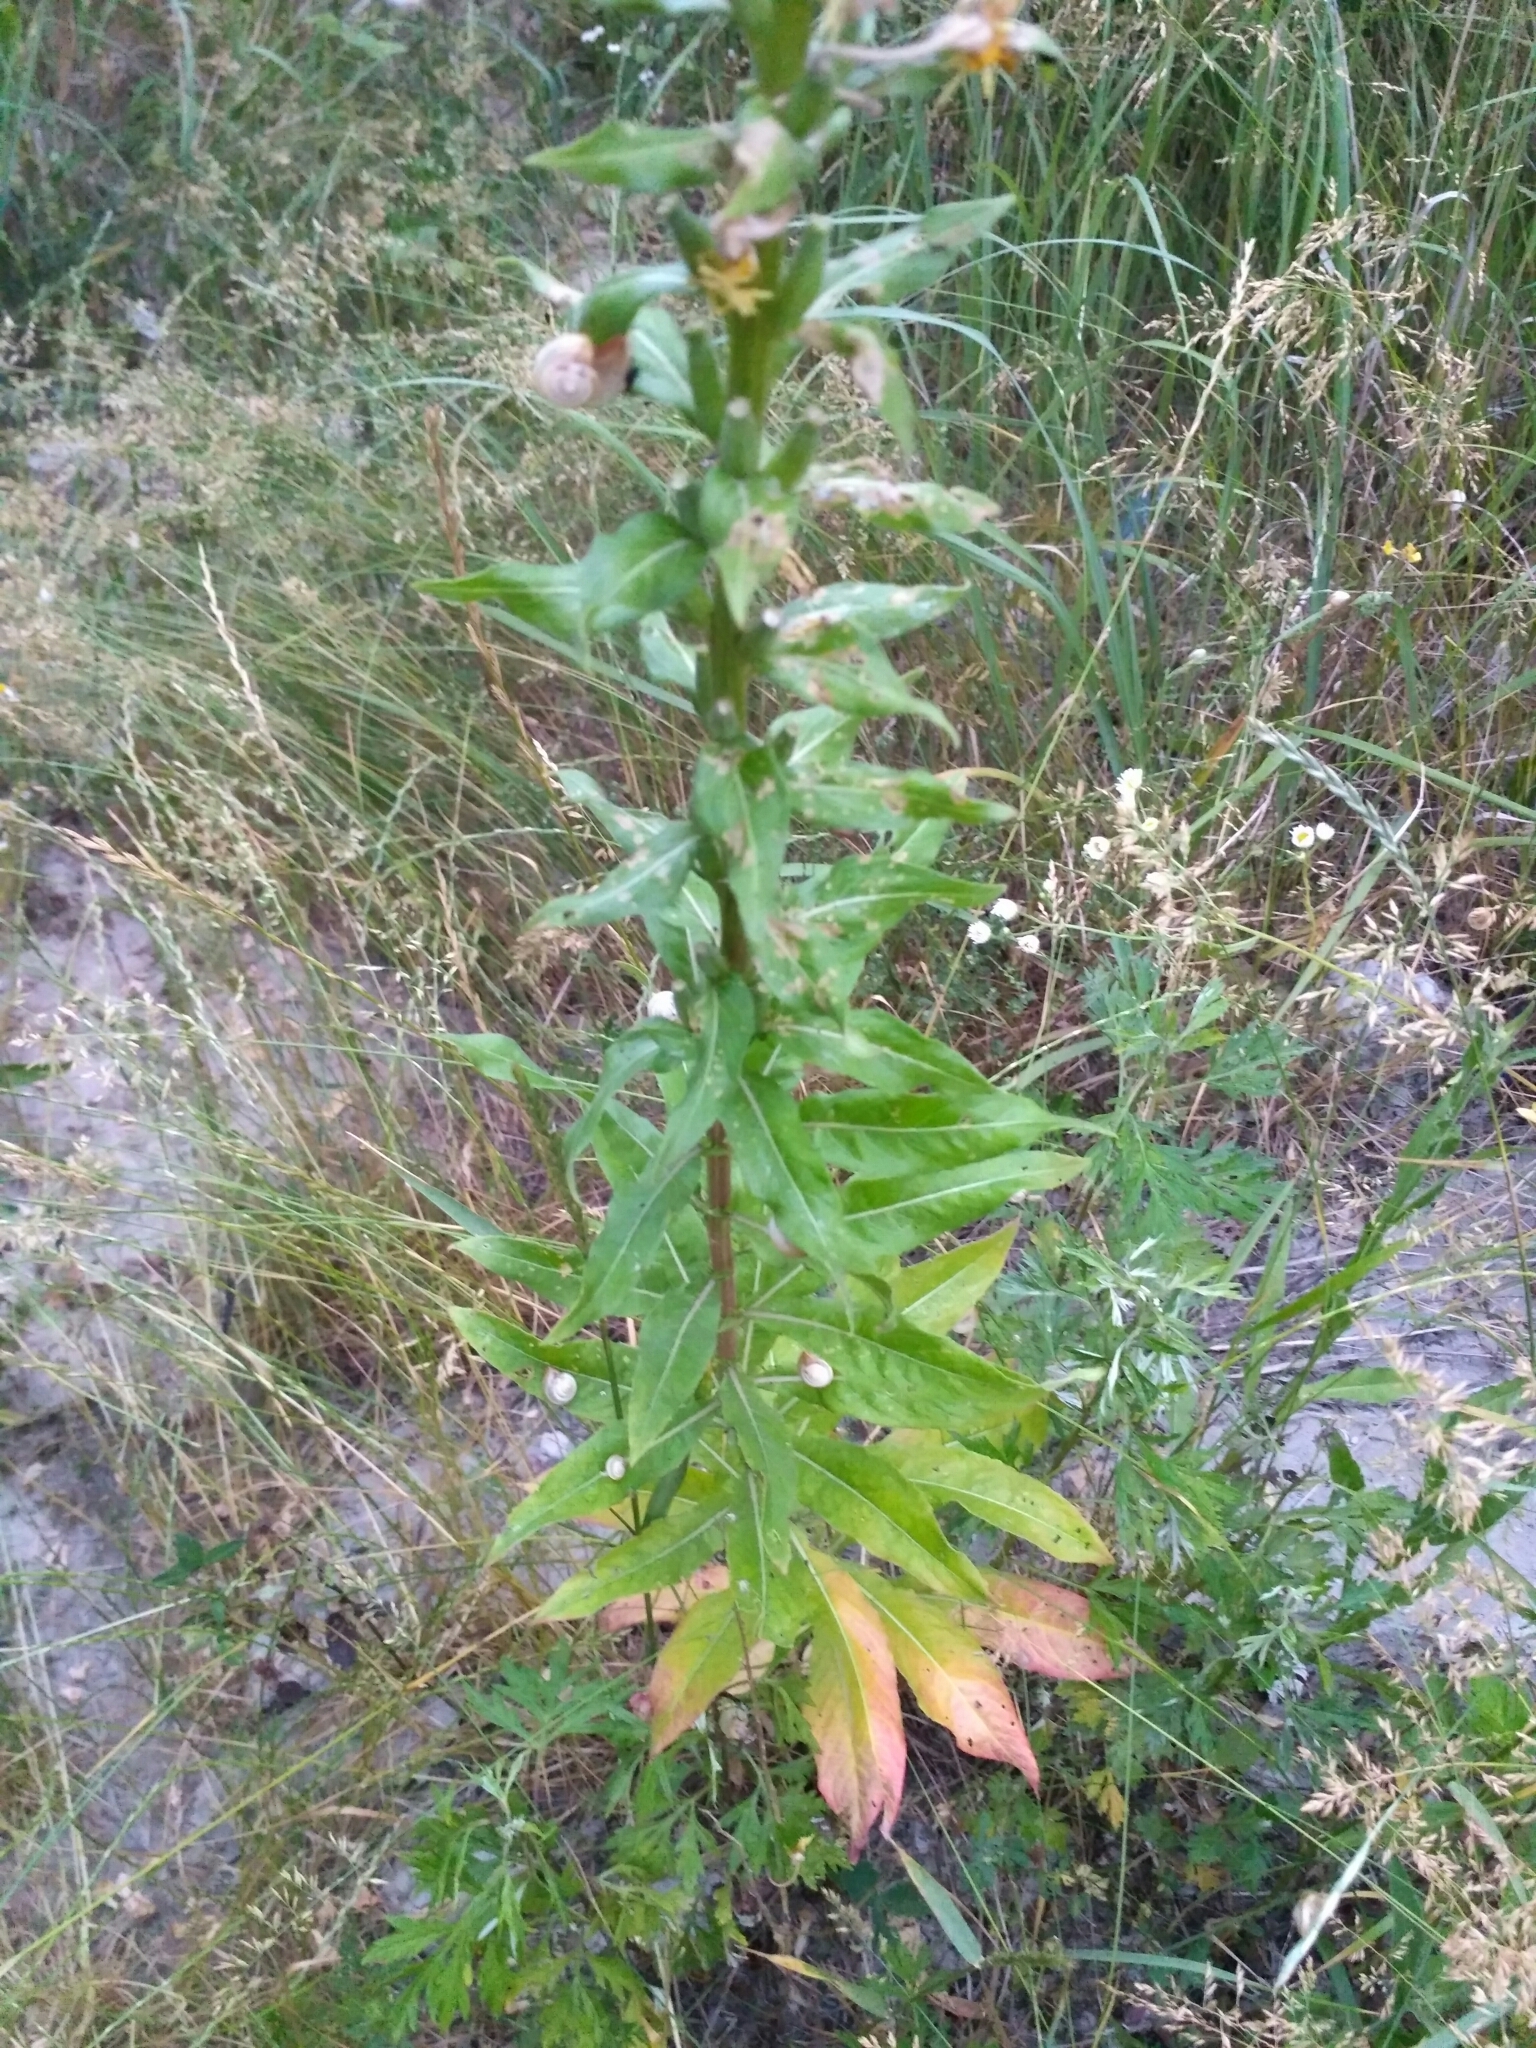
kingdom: Plantae
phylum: Tracheophyta
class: Magnoliopsida
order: Myrtales
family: Onagraceae
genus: Oenothera
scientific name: Oenothera biennis
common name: Common evening-primrose
